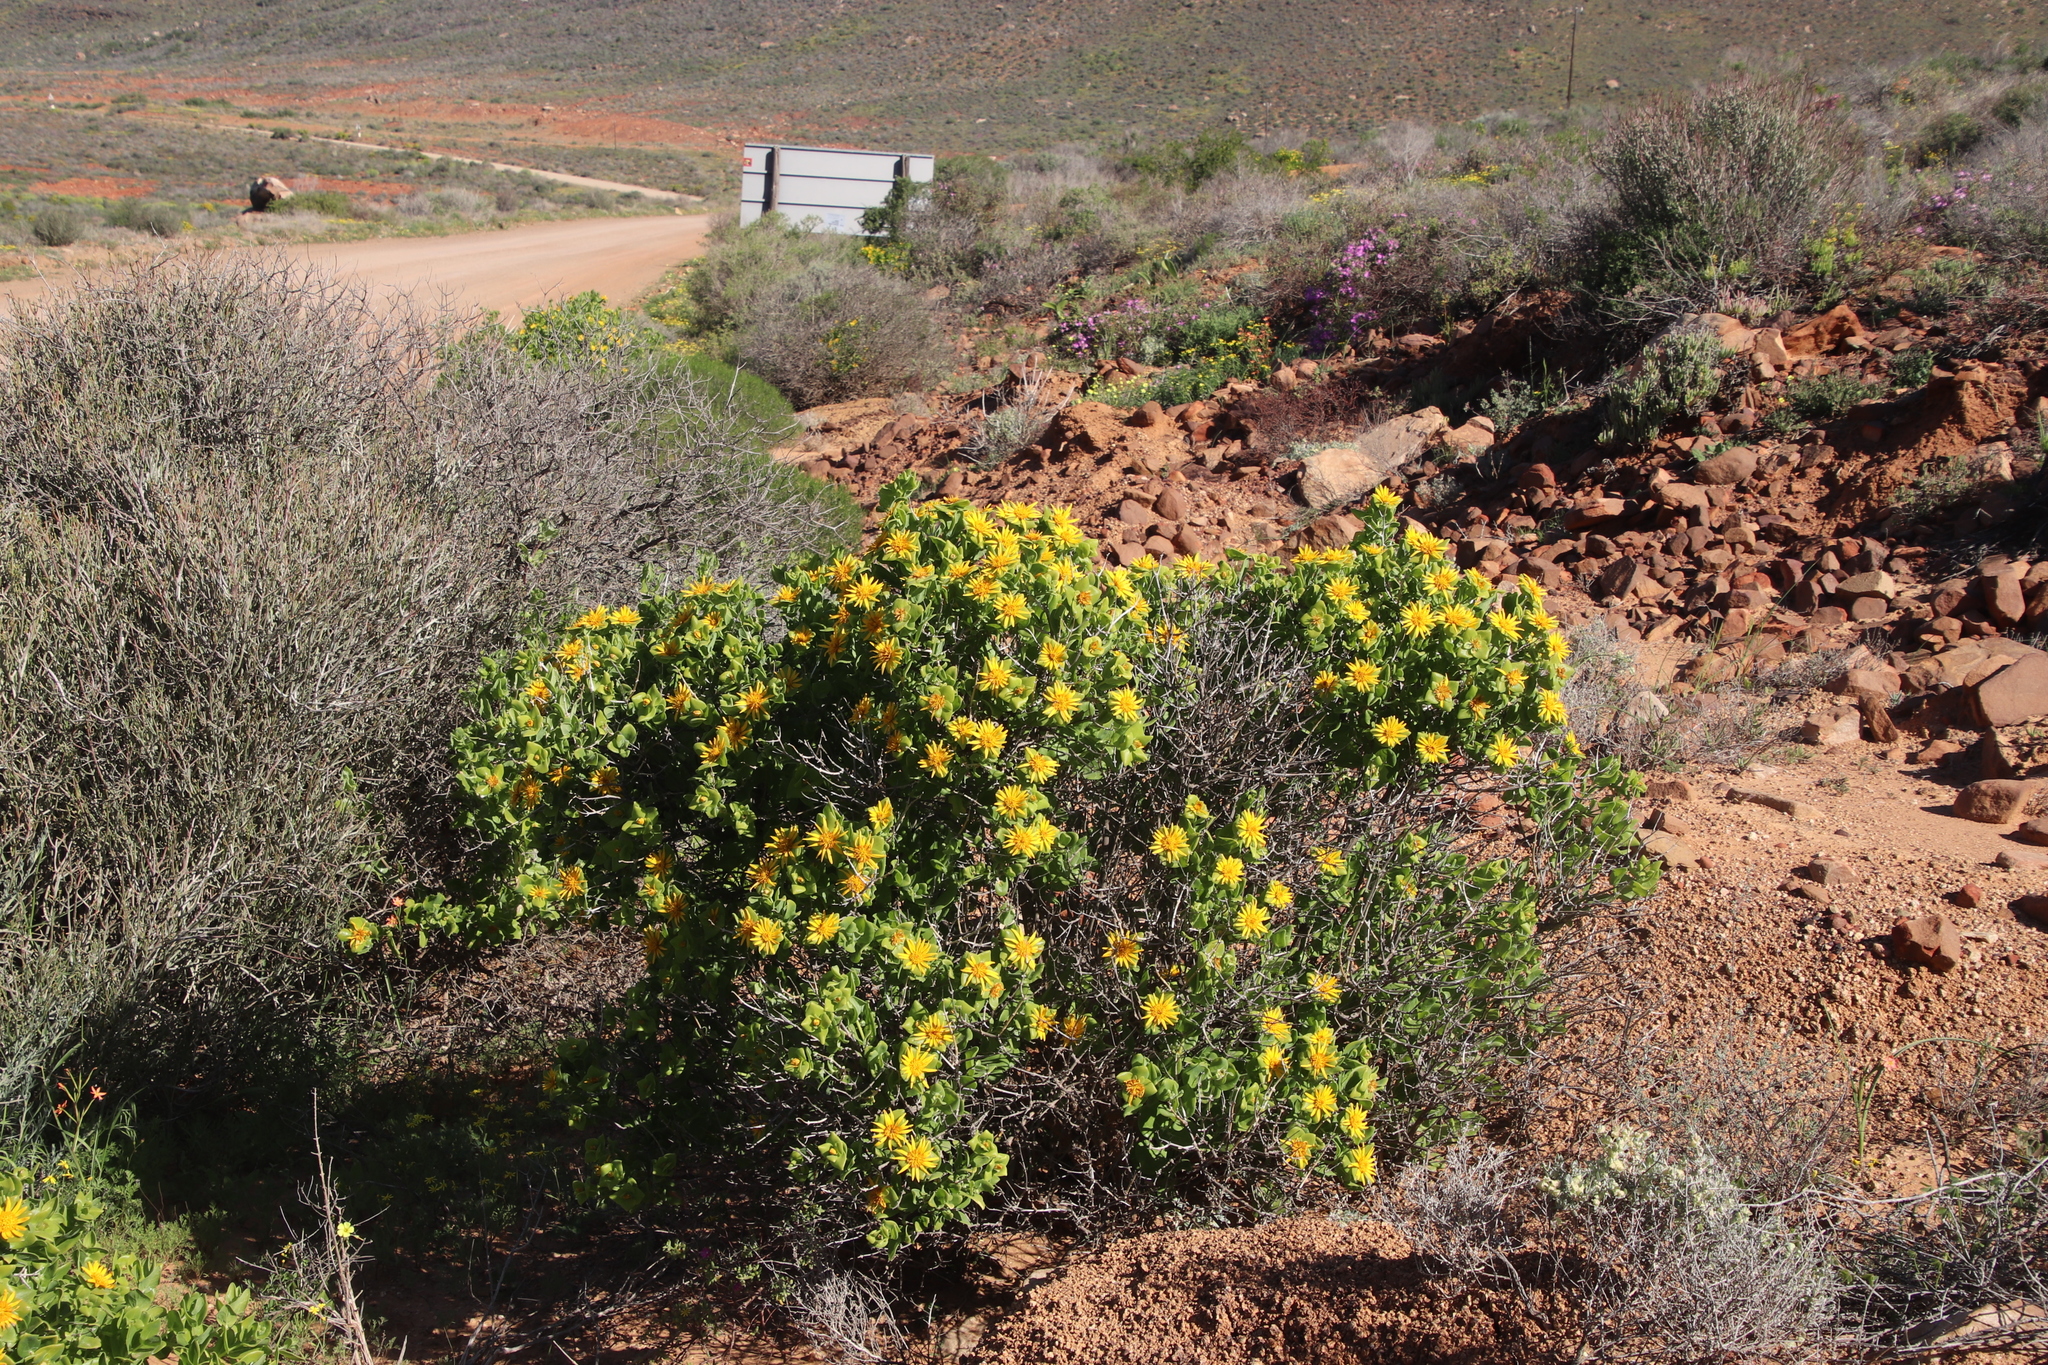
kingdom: Plantae
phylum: Tracheophyta
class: Magnoliopsida
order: Asterales
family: Asteraceae
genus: Didelta
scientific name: Didelta spinosa
